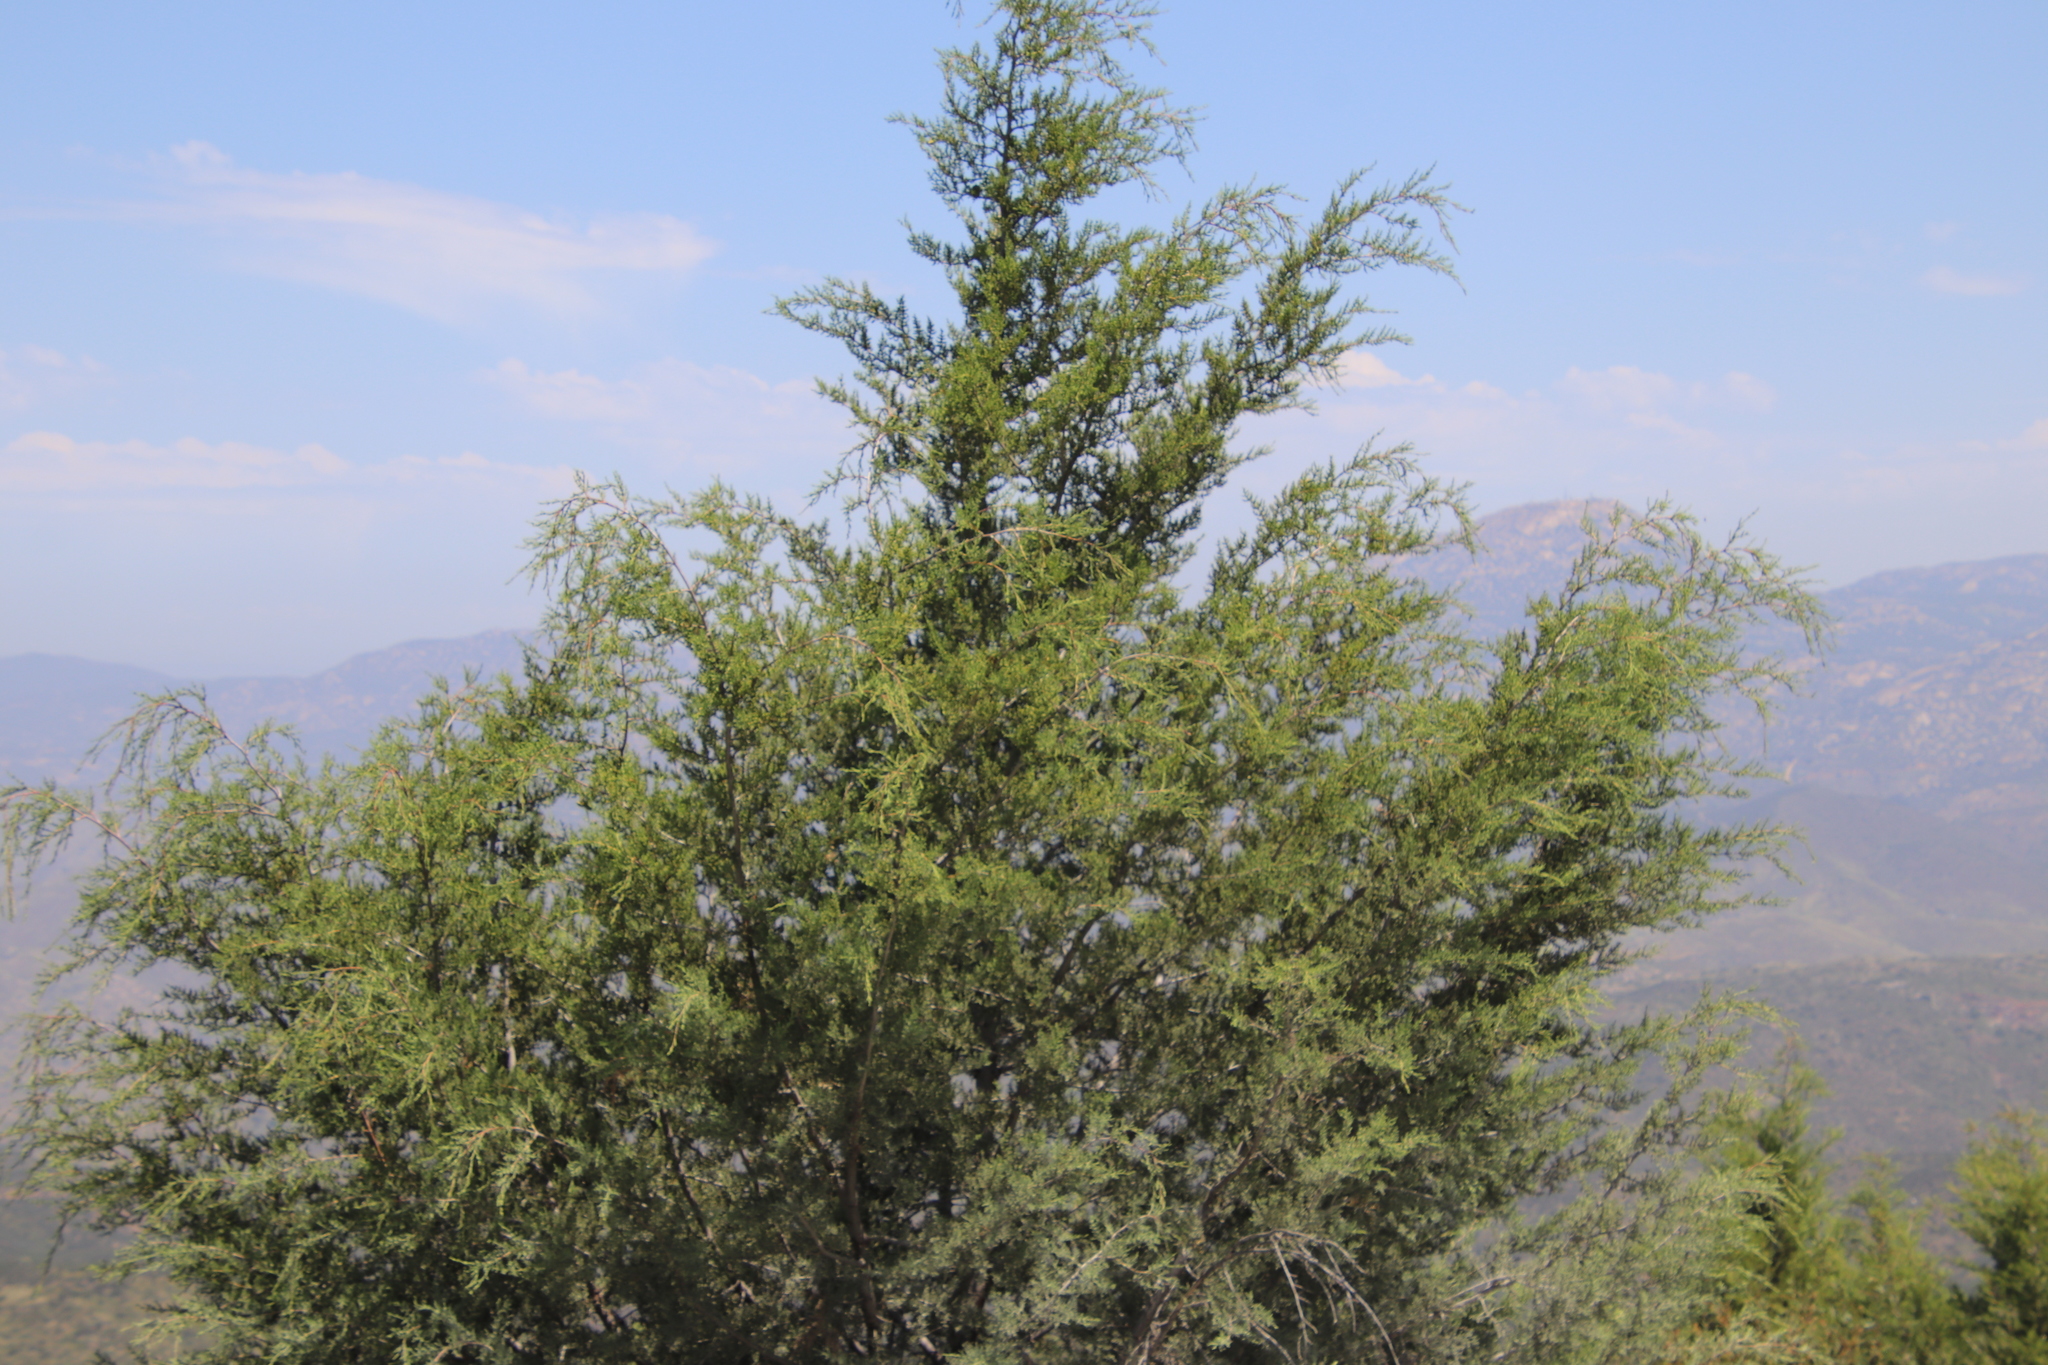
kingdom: Plantae
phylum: Tracheophyta
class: Pinopsida
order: Pinales
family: Cupressaceae
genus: Cupressus
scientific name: Cupressus guadalupensis
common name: Forbes cypress
